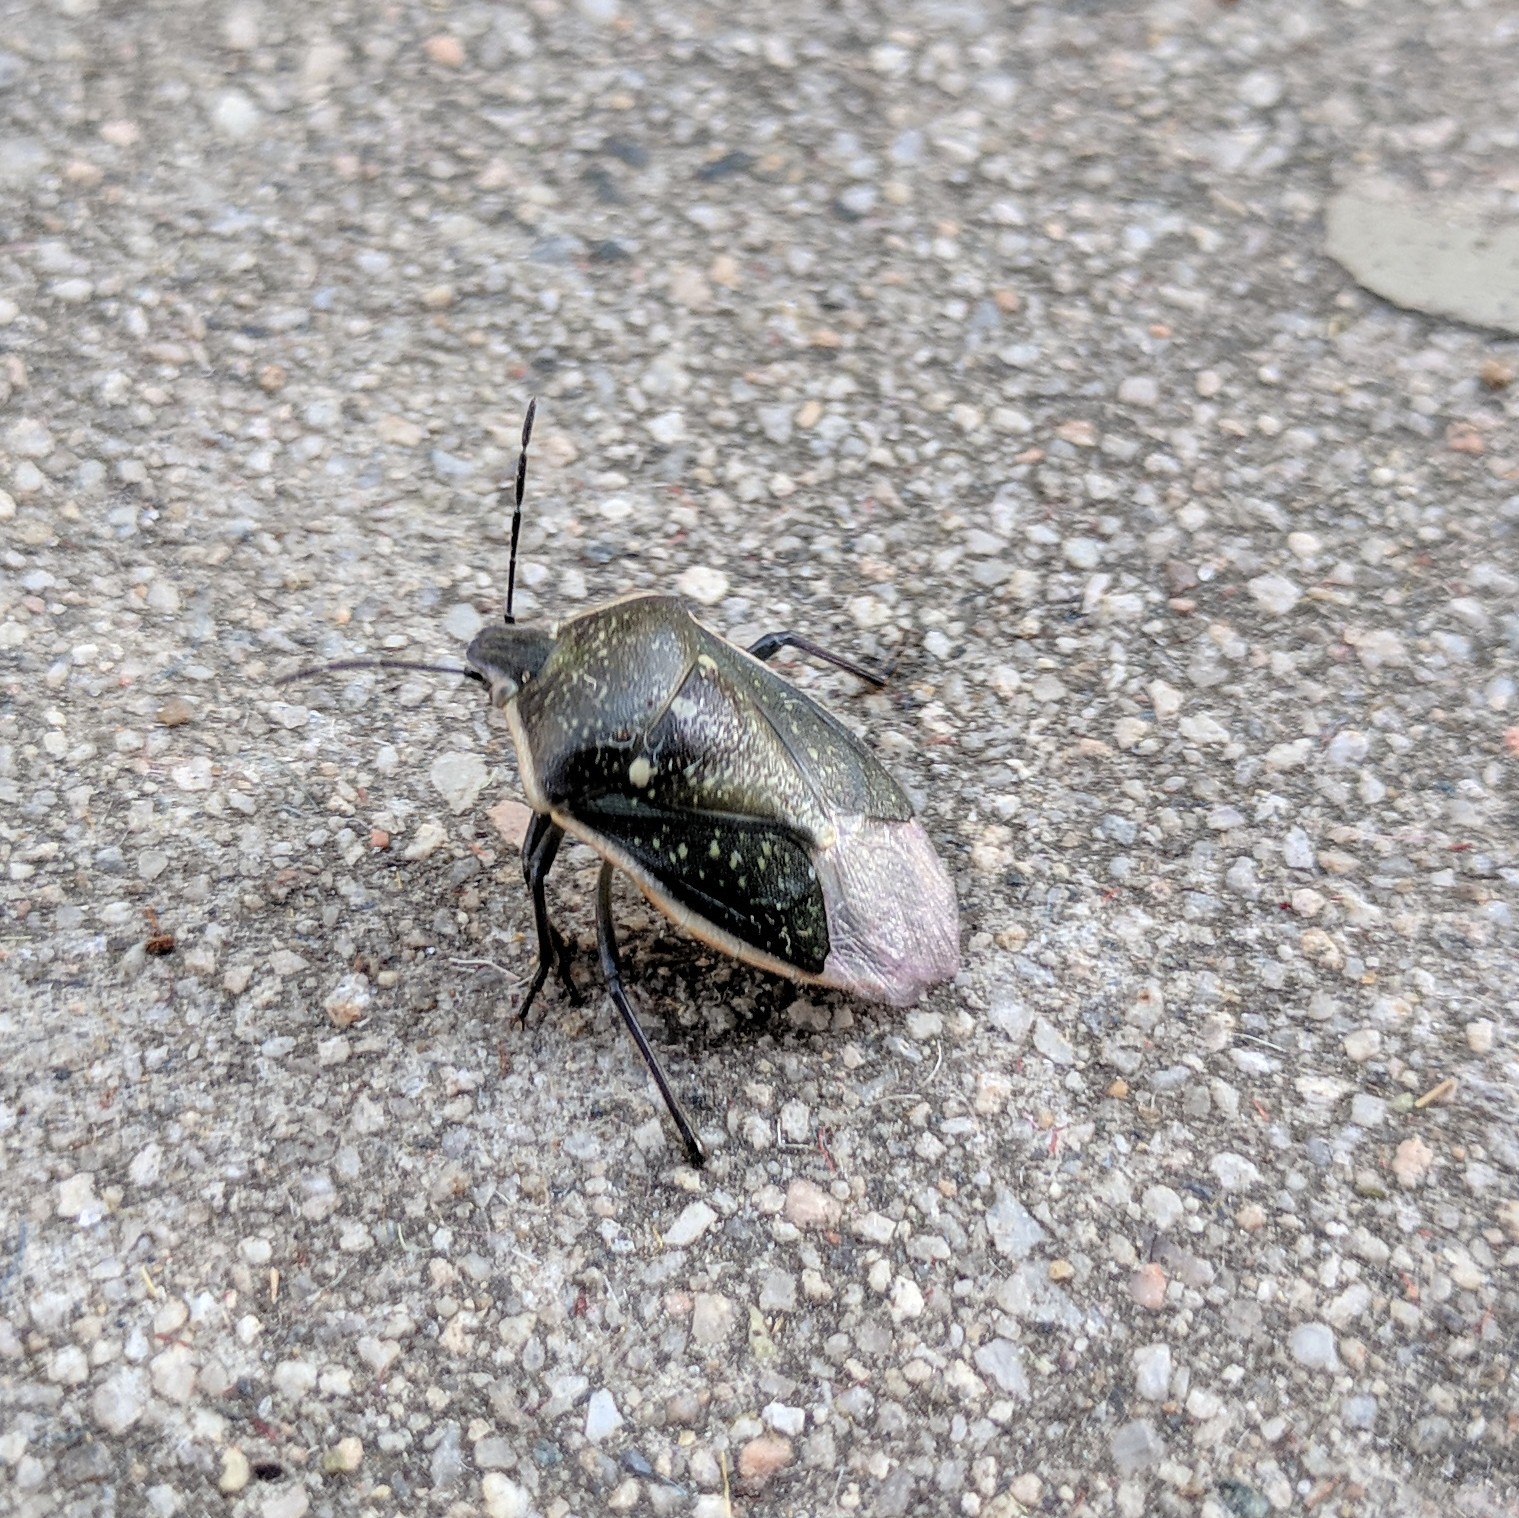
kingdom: Animalia
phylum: Arthropoda
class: Insecta
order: Hemiptera
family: Pentatomidae
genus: Chlorochroa
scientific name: Chlorochroa sayi
